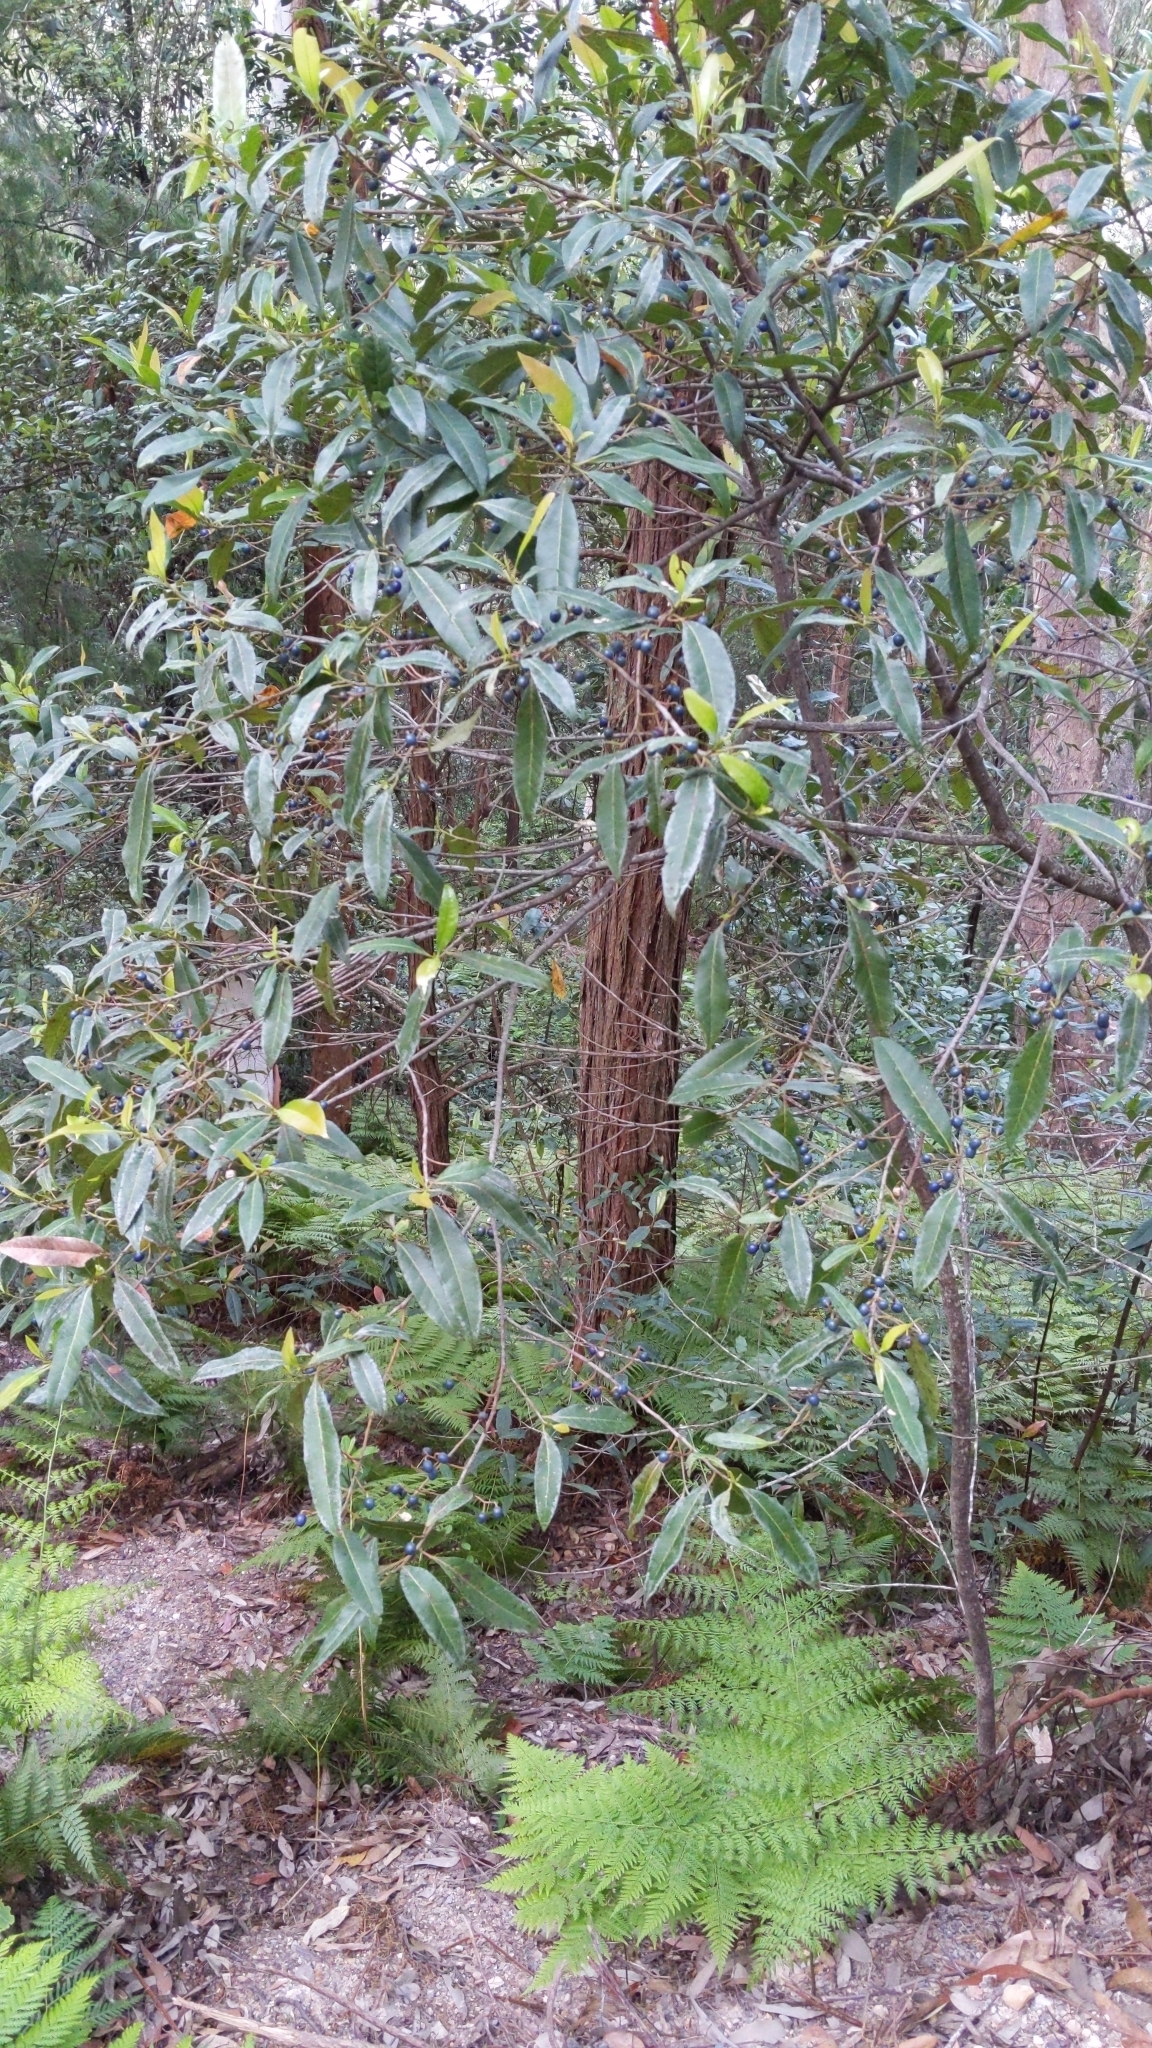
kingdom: Plantae
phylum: Tracheophyta
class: Magnoliopsida
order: Oxalidales
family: Elaeocarpaceae
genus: Elaeocarpus
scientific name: Elaeocarpus reticulatus
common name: Ash quandong
